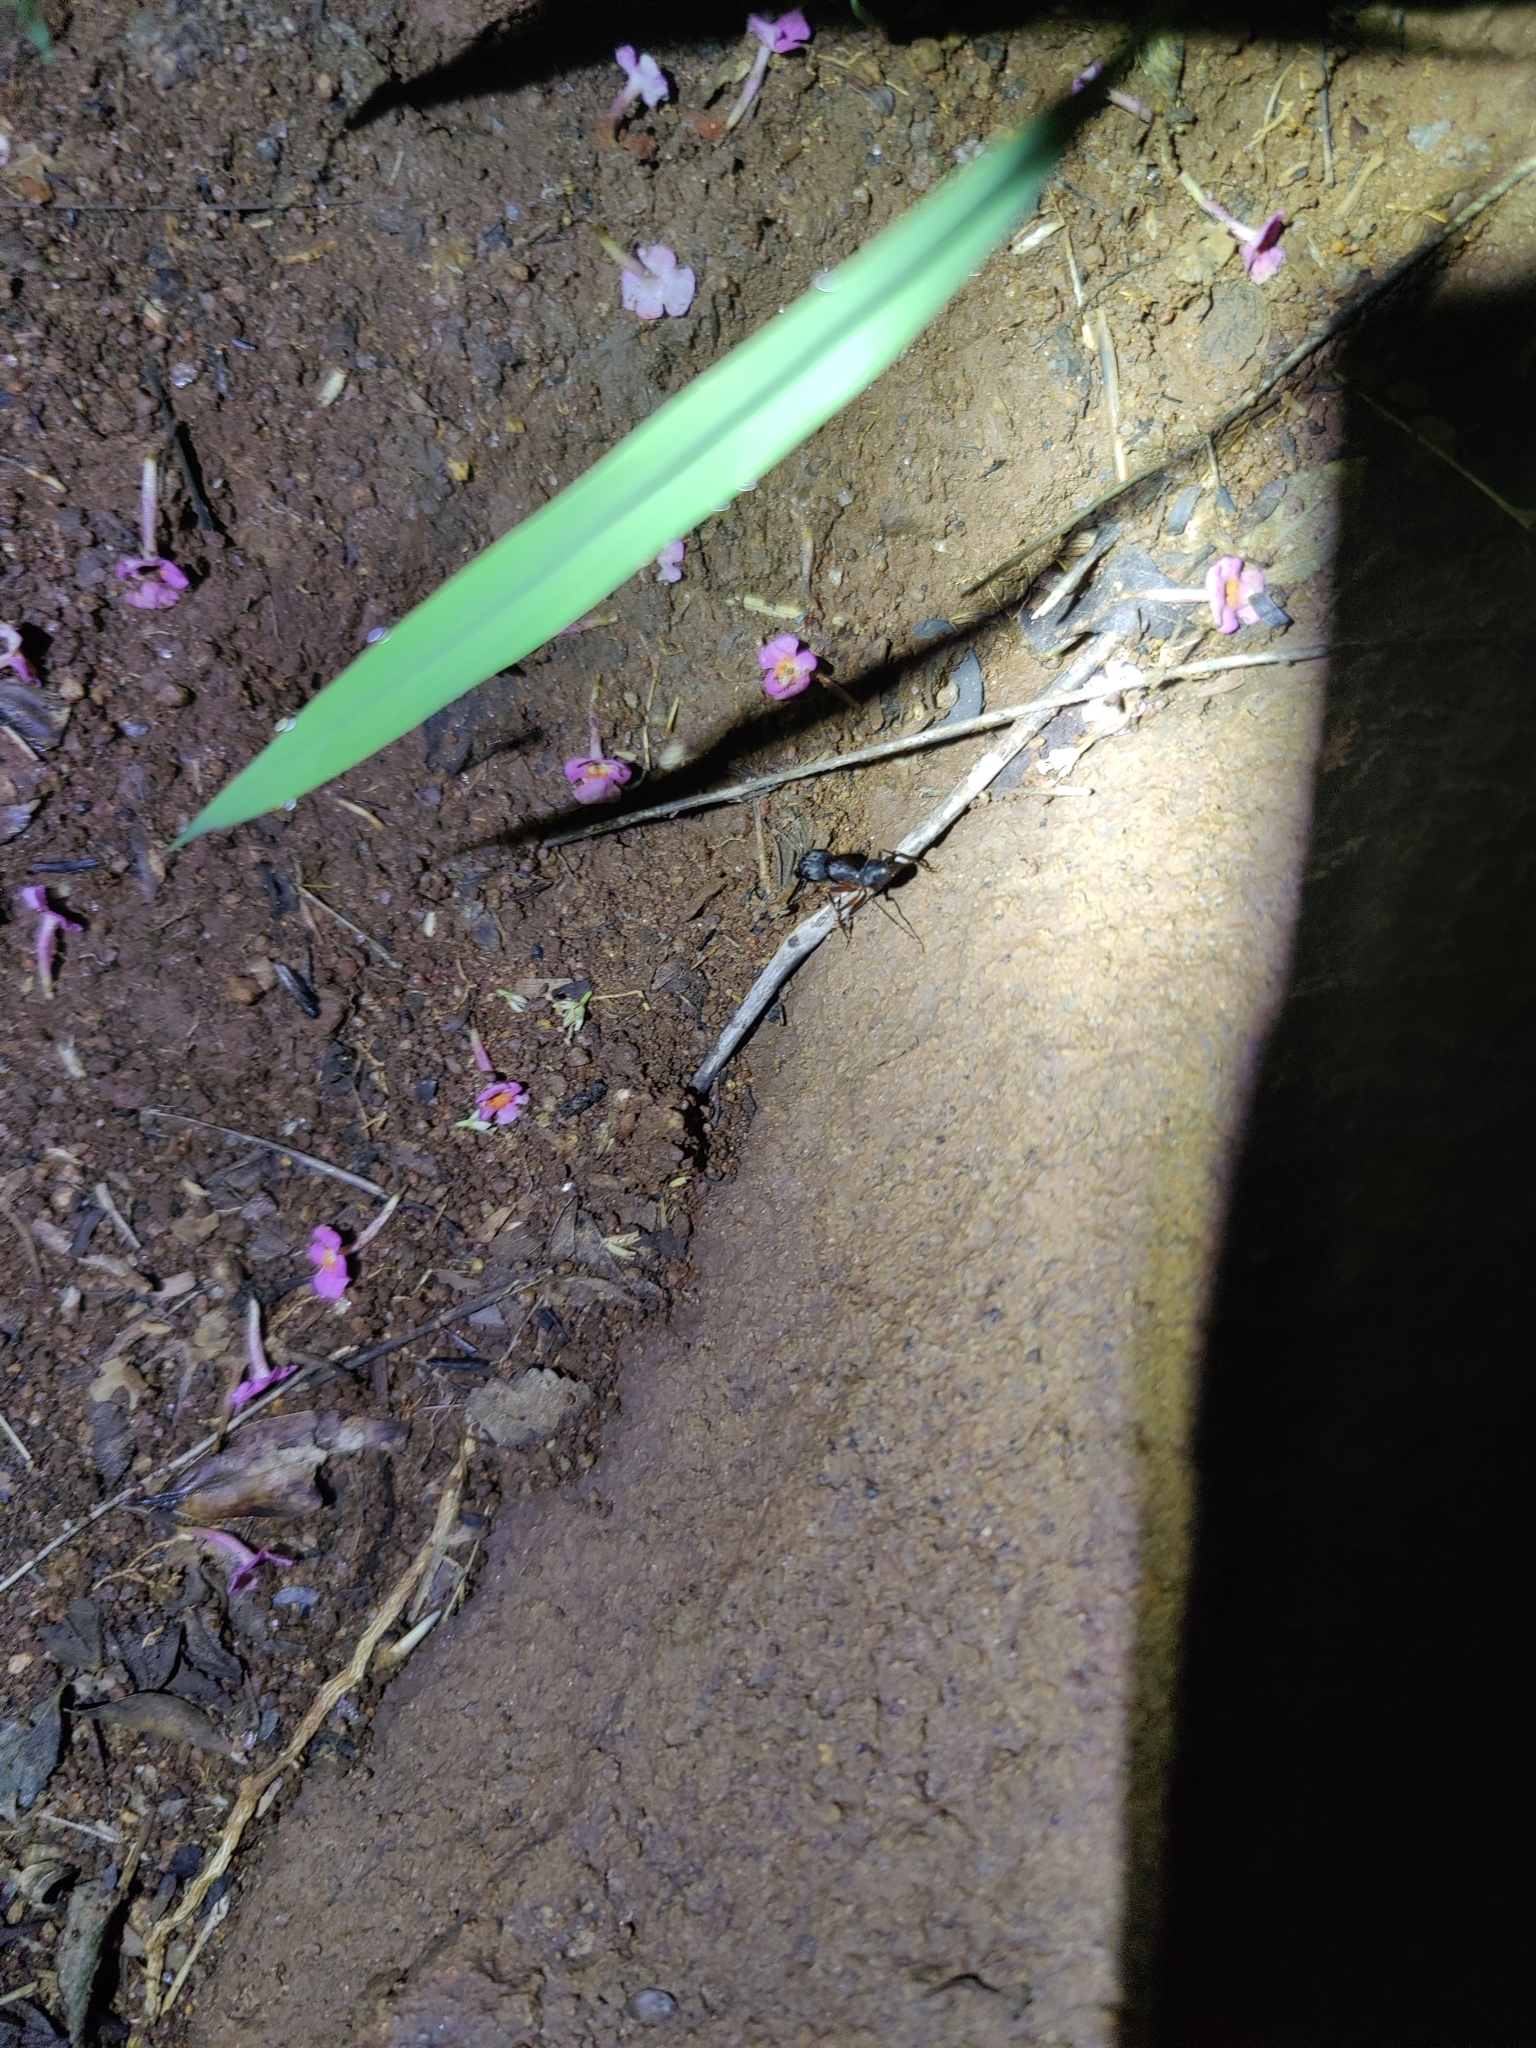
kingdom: Animalia
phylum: Arthropoda
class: Insecta
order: Hymenoptera
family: Formicidae
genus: Camponotus
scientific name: Camponotus compressus
